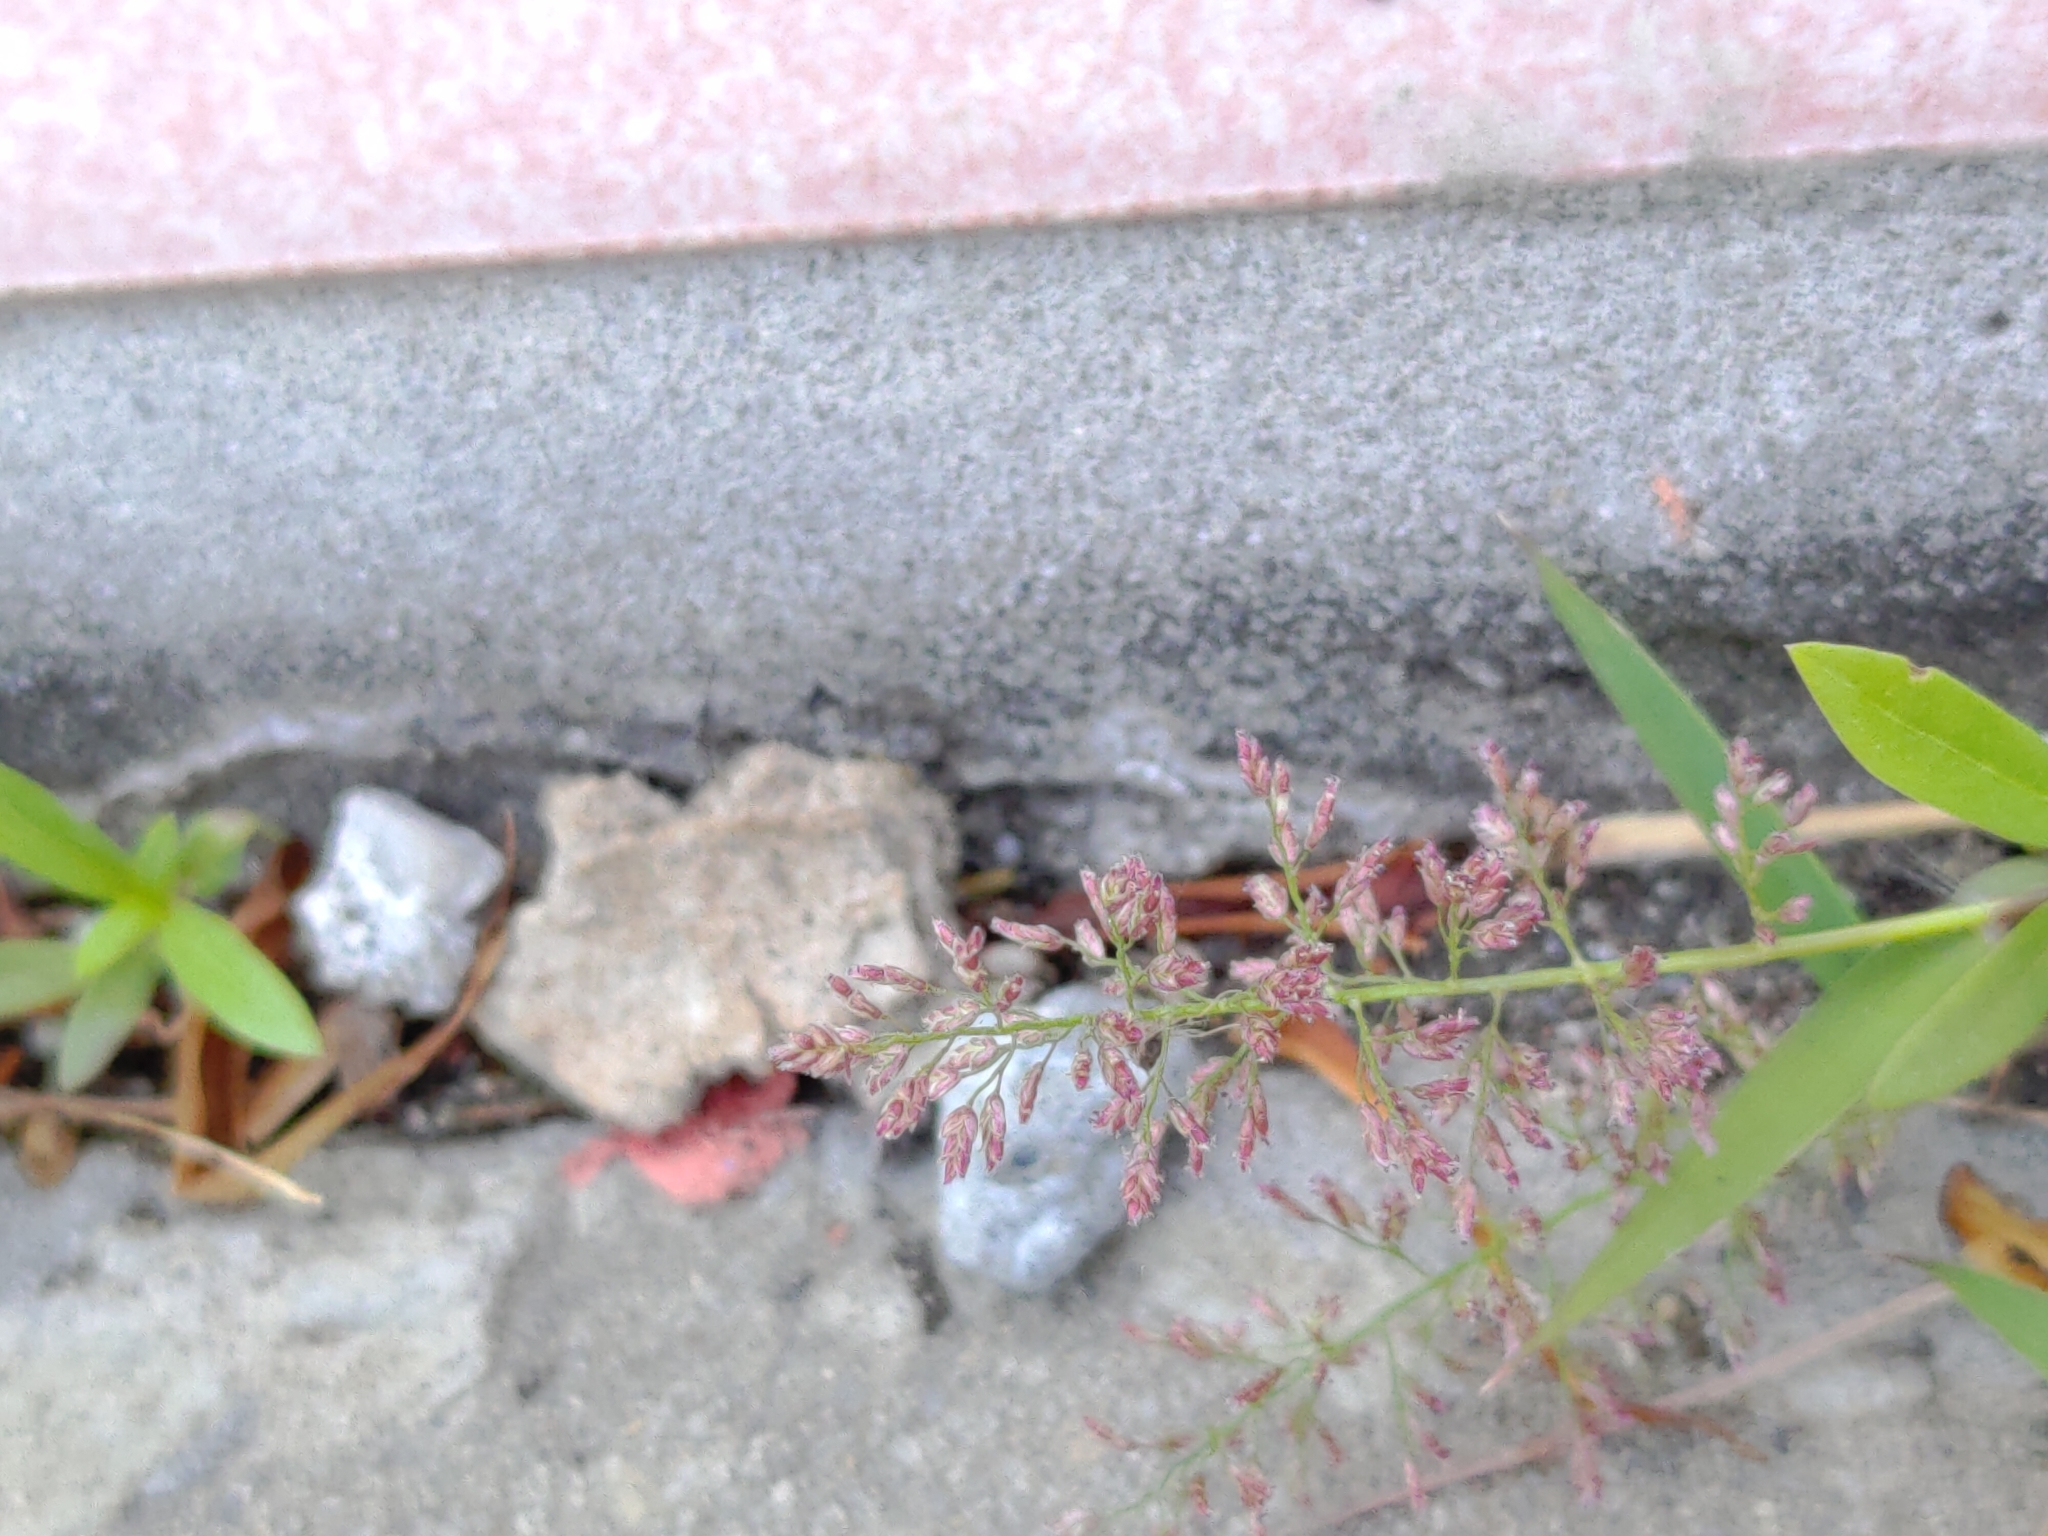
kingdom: Plantae
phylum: Tracheophyta
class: Liliopsida
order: Poales
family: Poaceae
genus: Eragrostis
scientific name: Eragrostis tenella
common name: Japanese lovegrass
